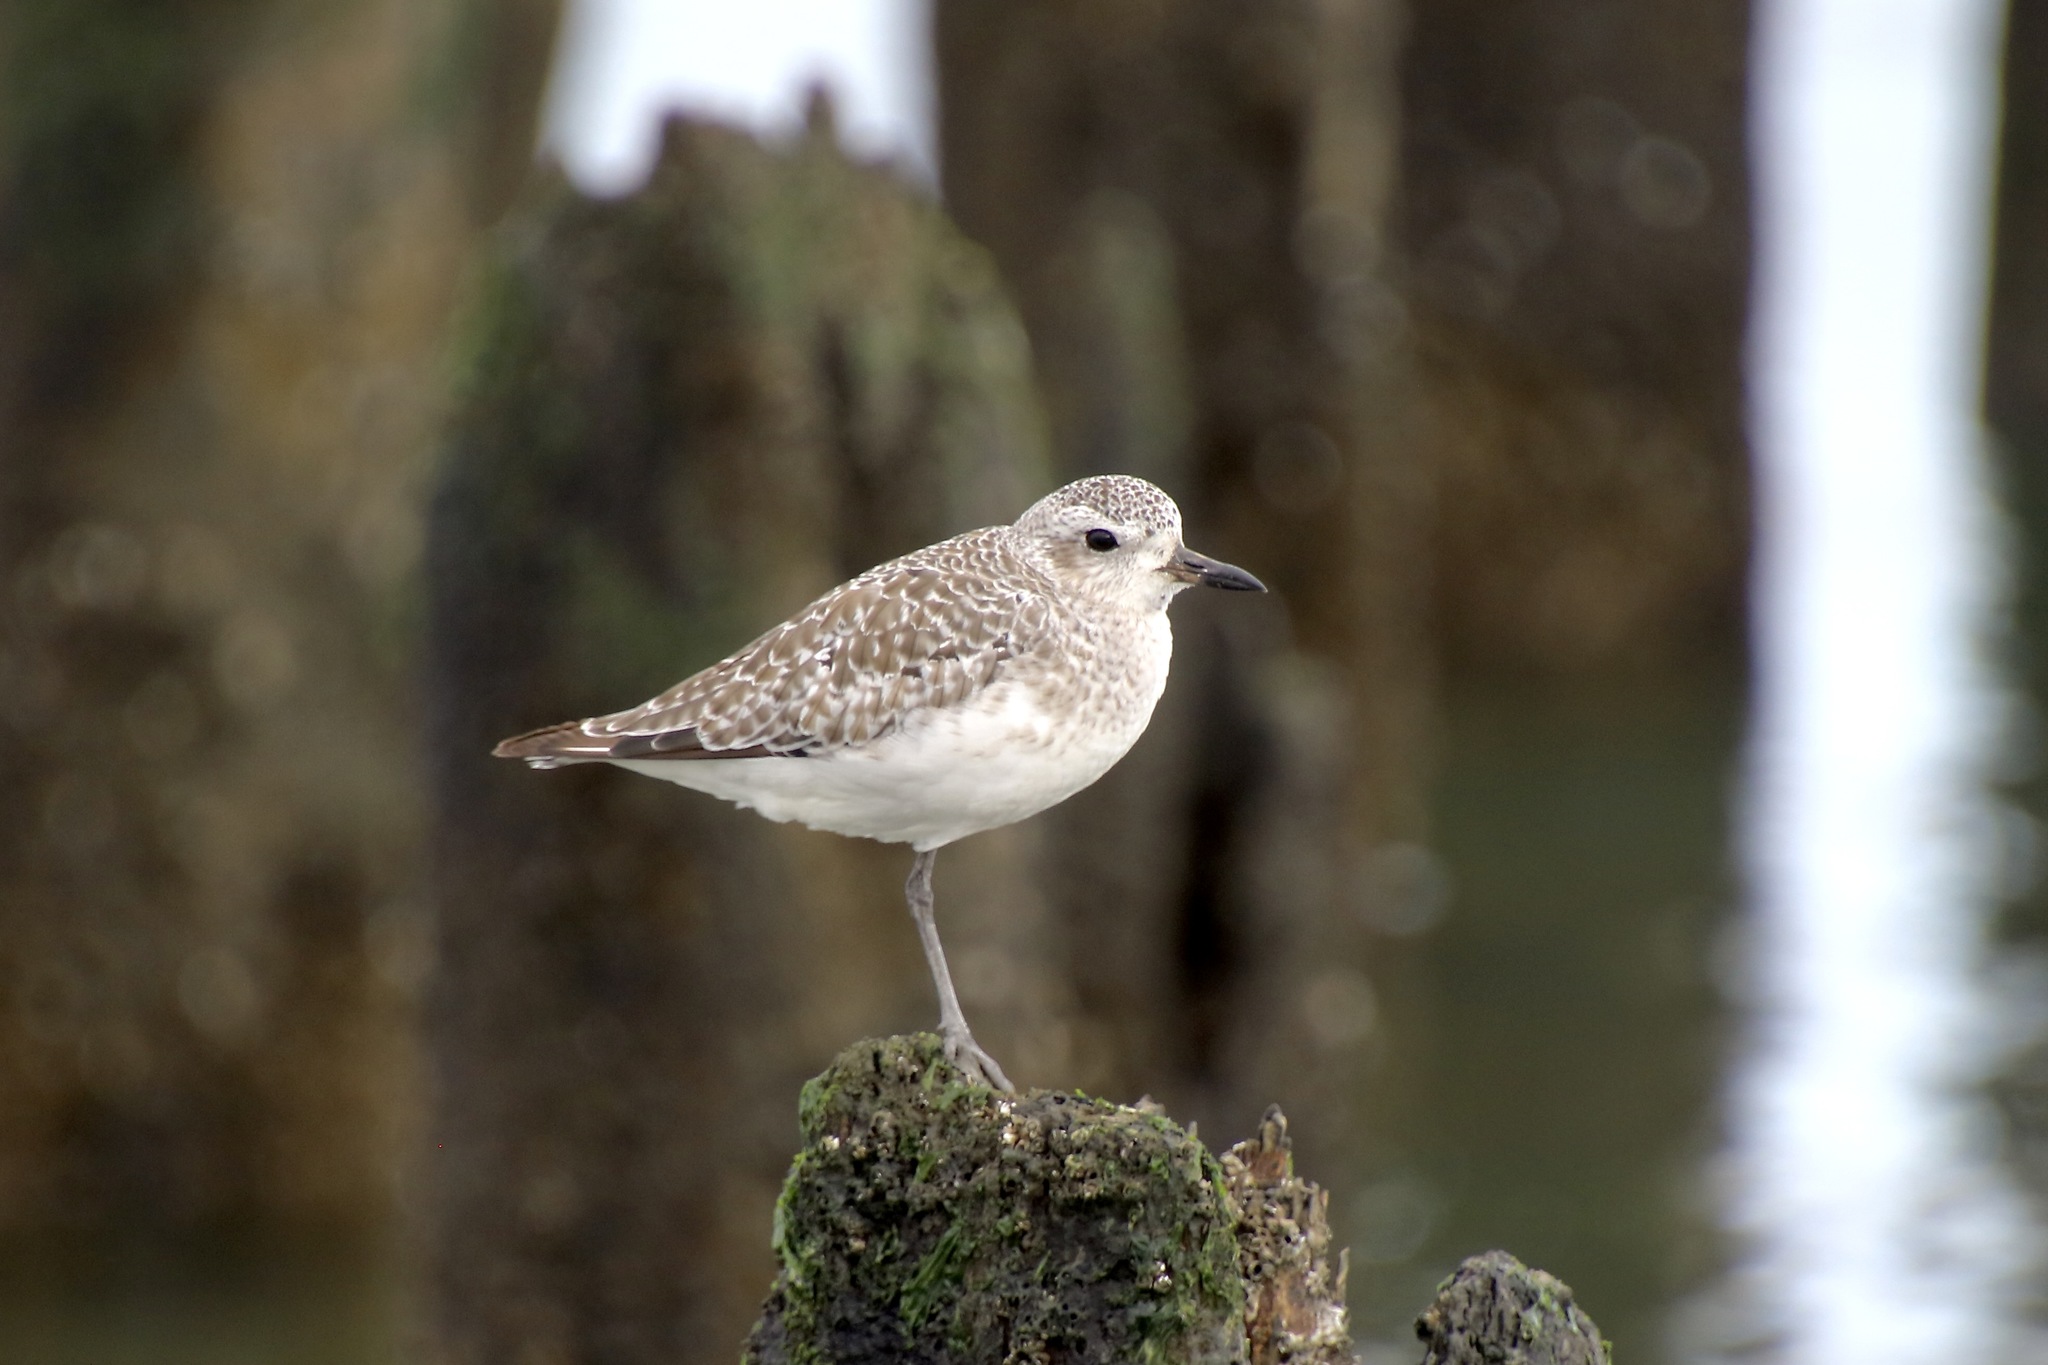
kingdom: Animalia
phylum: Chordata
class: Aves
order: Charadriiformes
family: Charadriidae
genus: Pluvialis
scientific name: Pluvialis squatarola
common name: Grey plover
